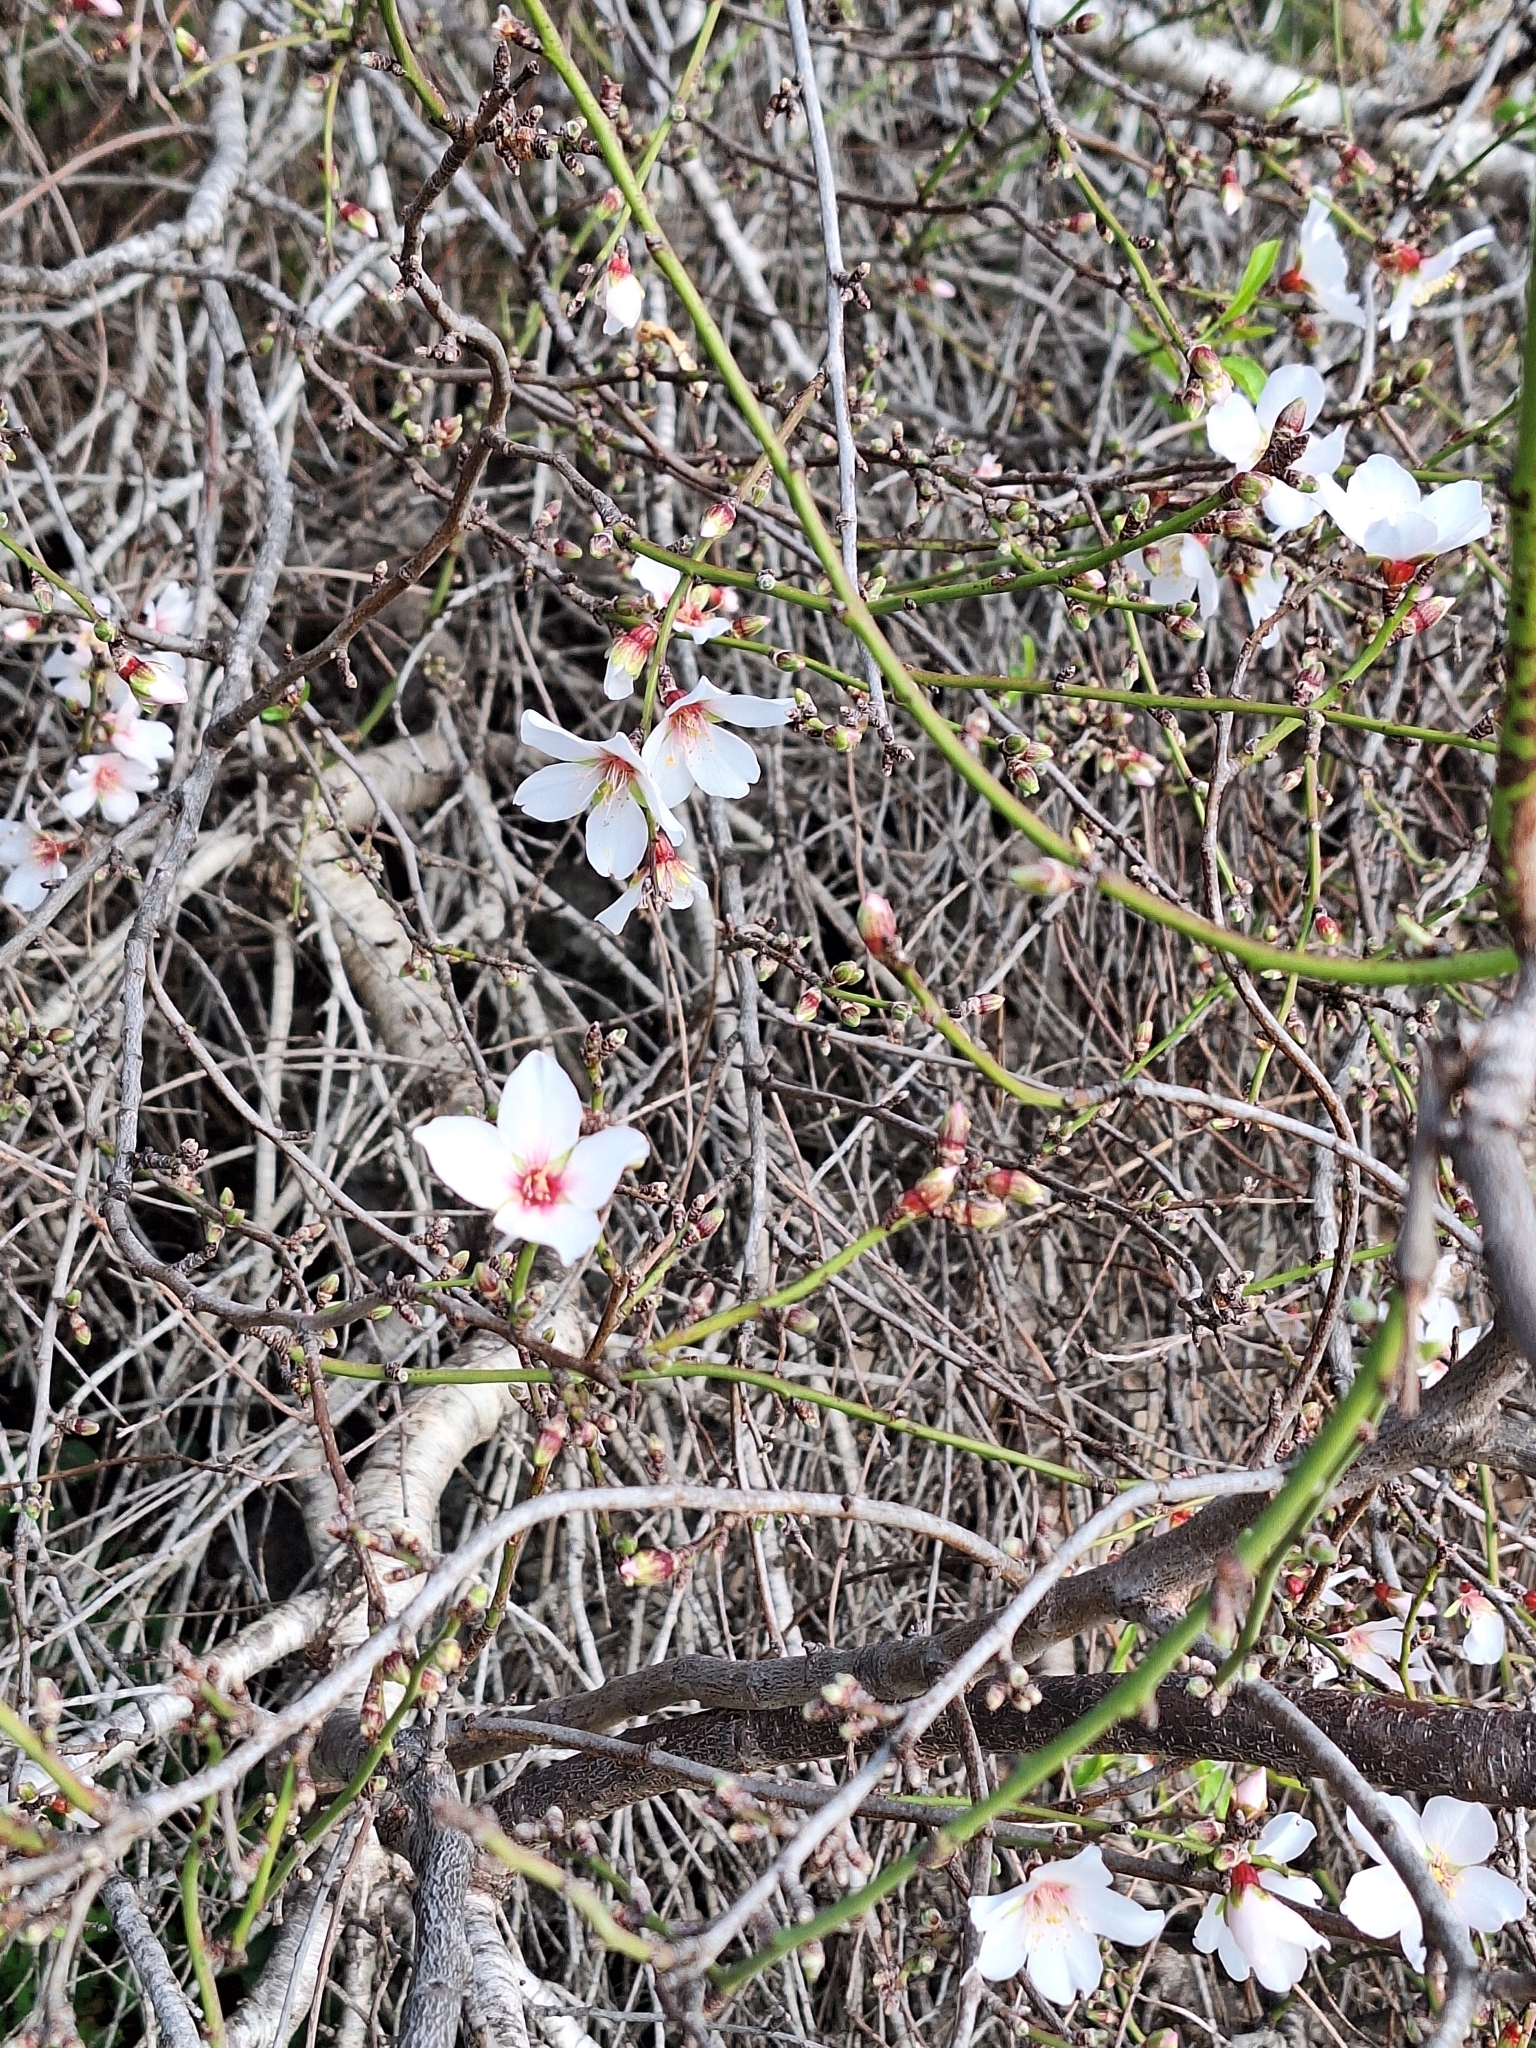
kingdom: Plantae
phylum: Tracheophyta
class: Magnoliopsida
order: Rosales
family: Rosaceae
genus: Prunus
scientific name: Prunus amygdalus
